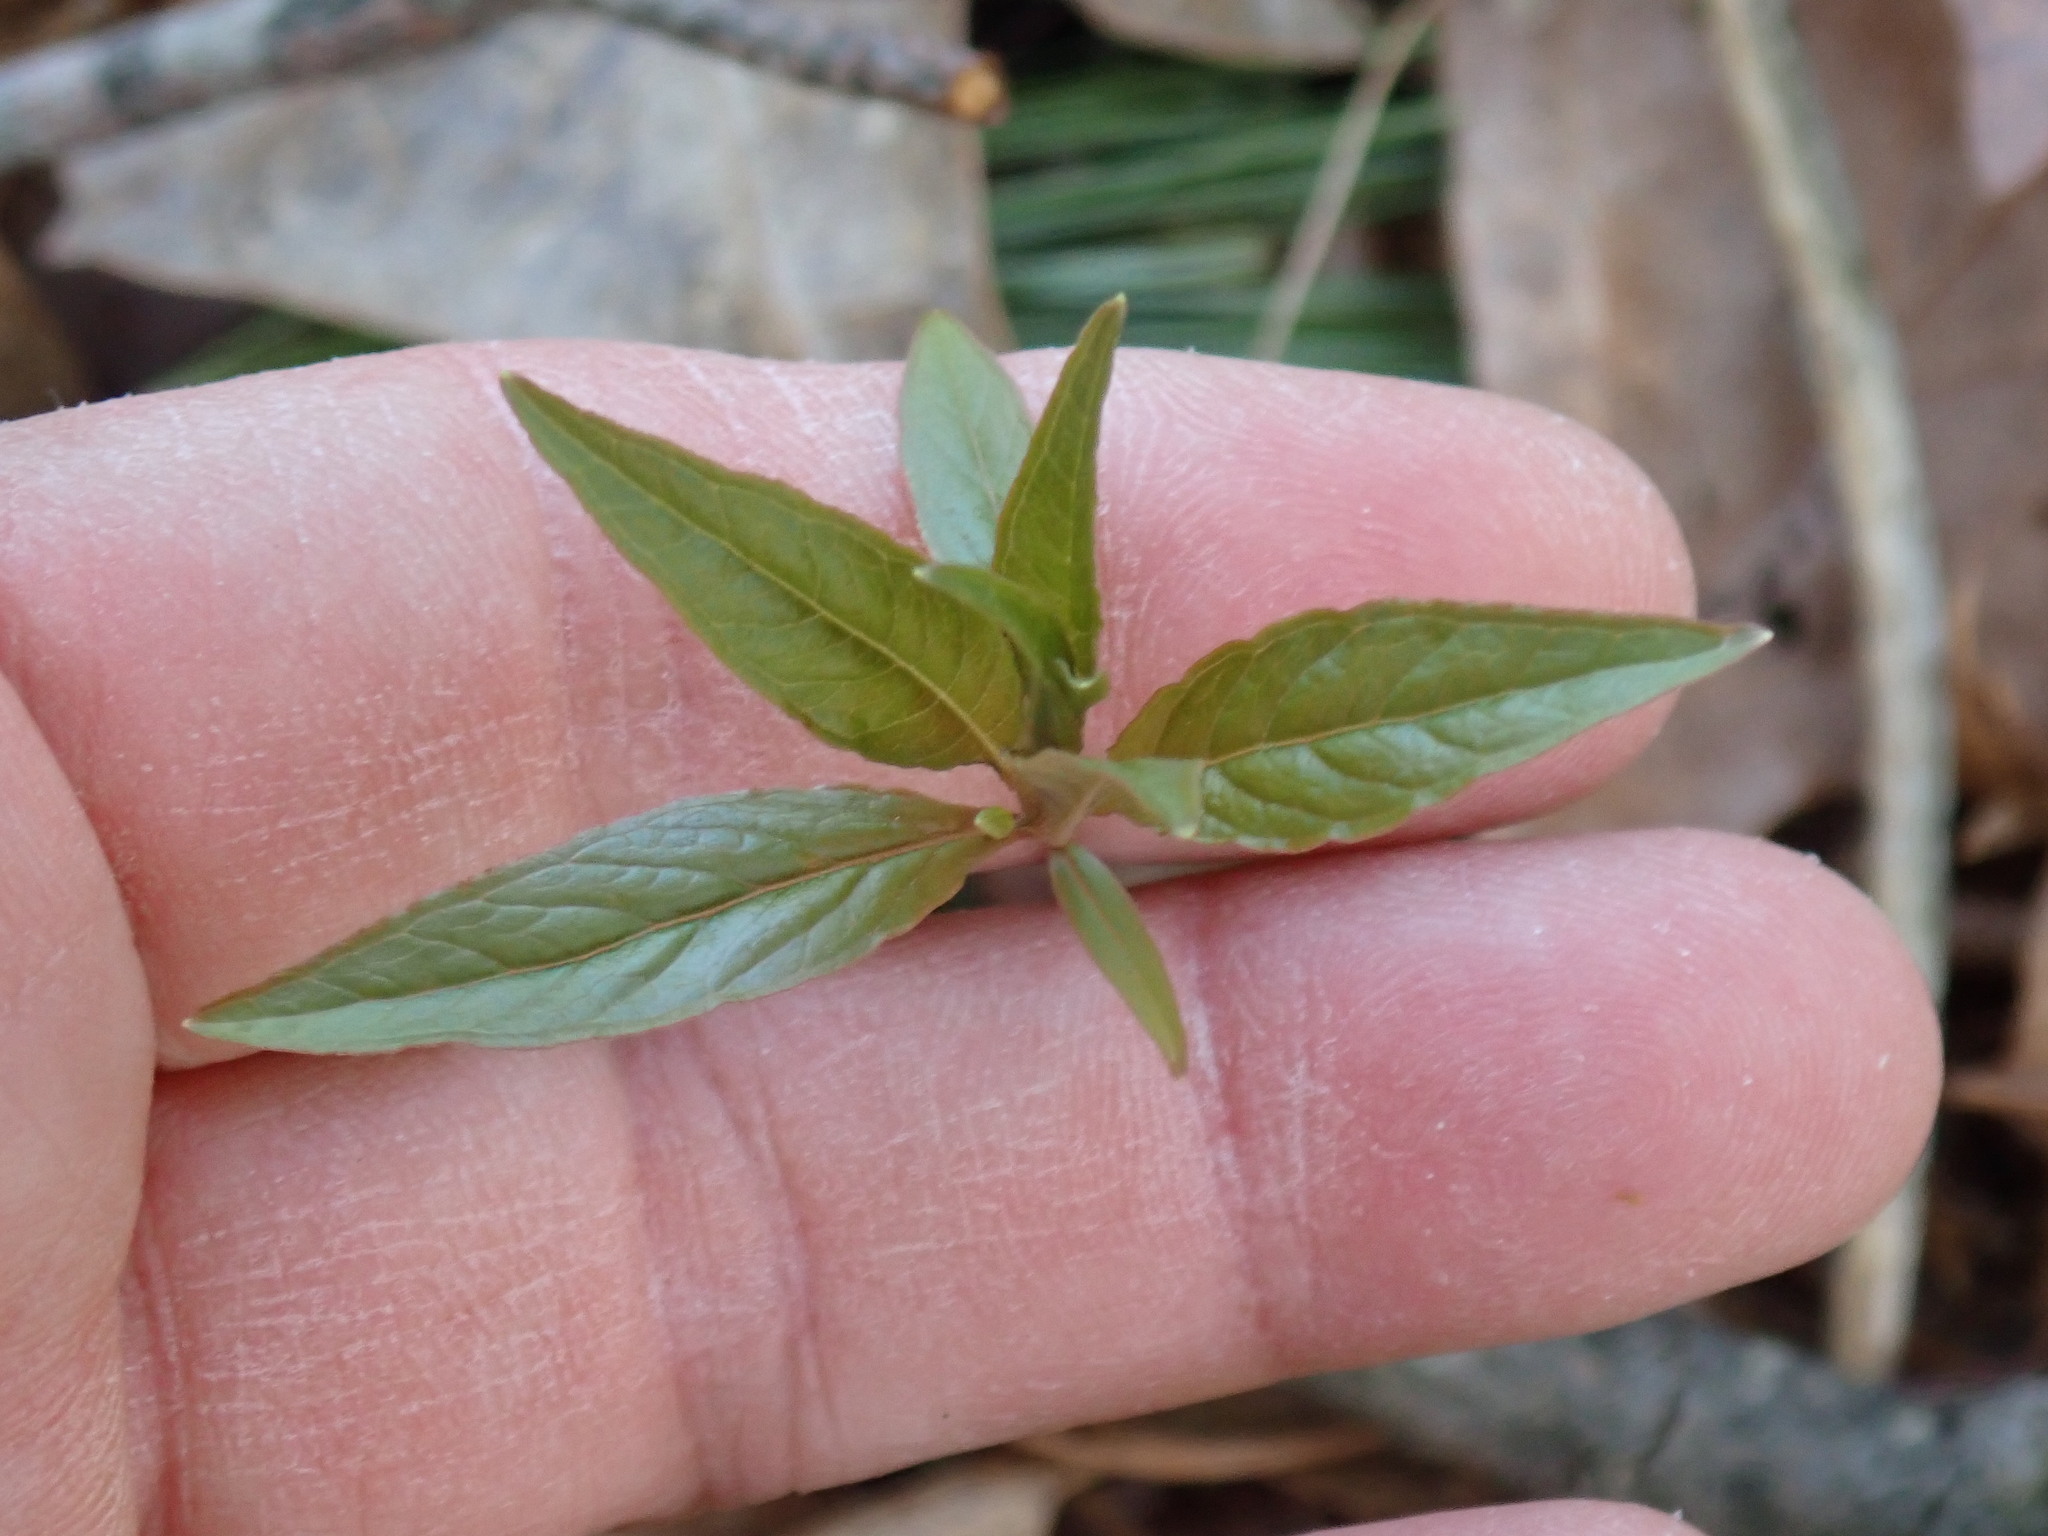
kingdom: Plantae
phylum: Tracheophyta
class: Magnoliopsida
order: Ericales
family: Primulaceae
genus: Lysimachia
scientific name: Lysimachia borealis
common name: American starflower
